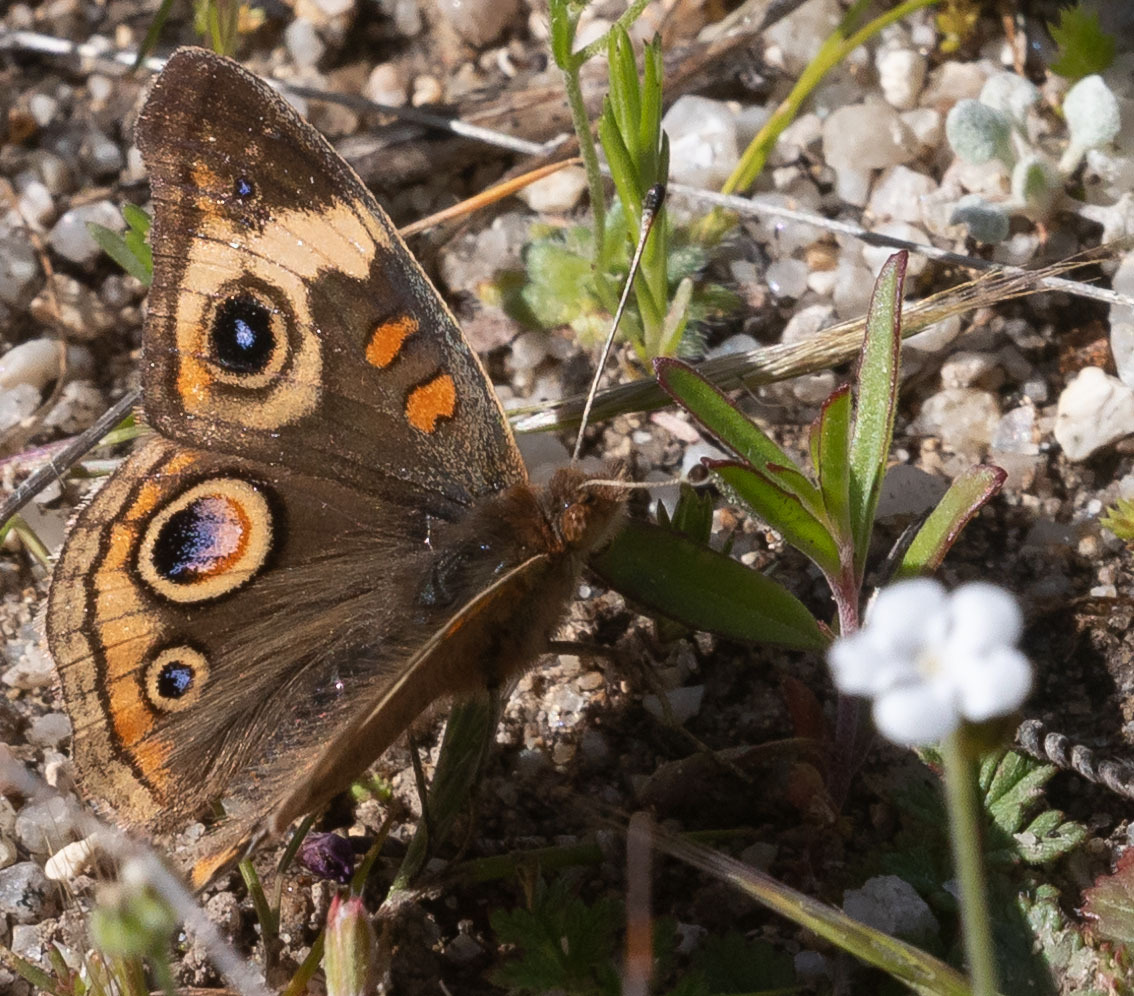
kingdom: Animalia
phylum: Arthropoda
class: Insecta
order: Lepidoptera
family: Nymphalidae
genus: Junonia
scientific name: Junonia grisea
